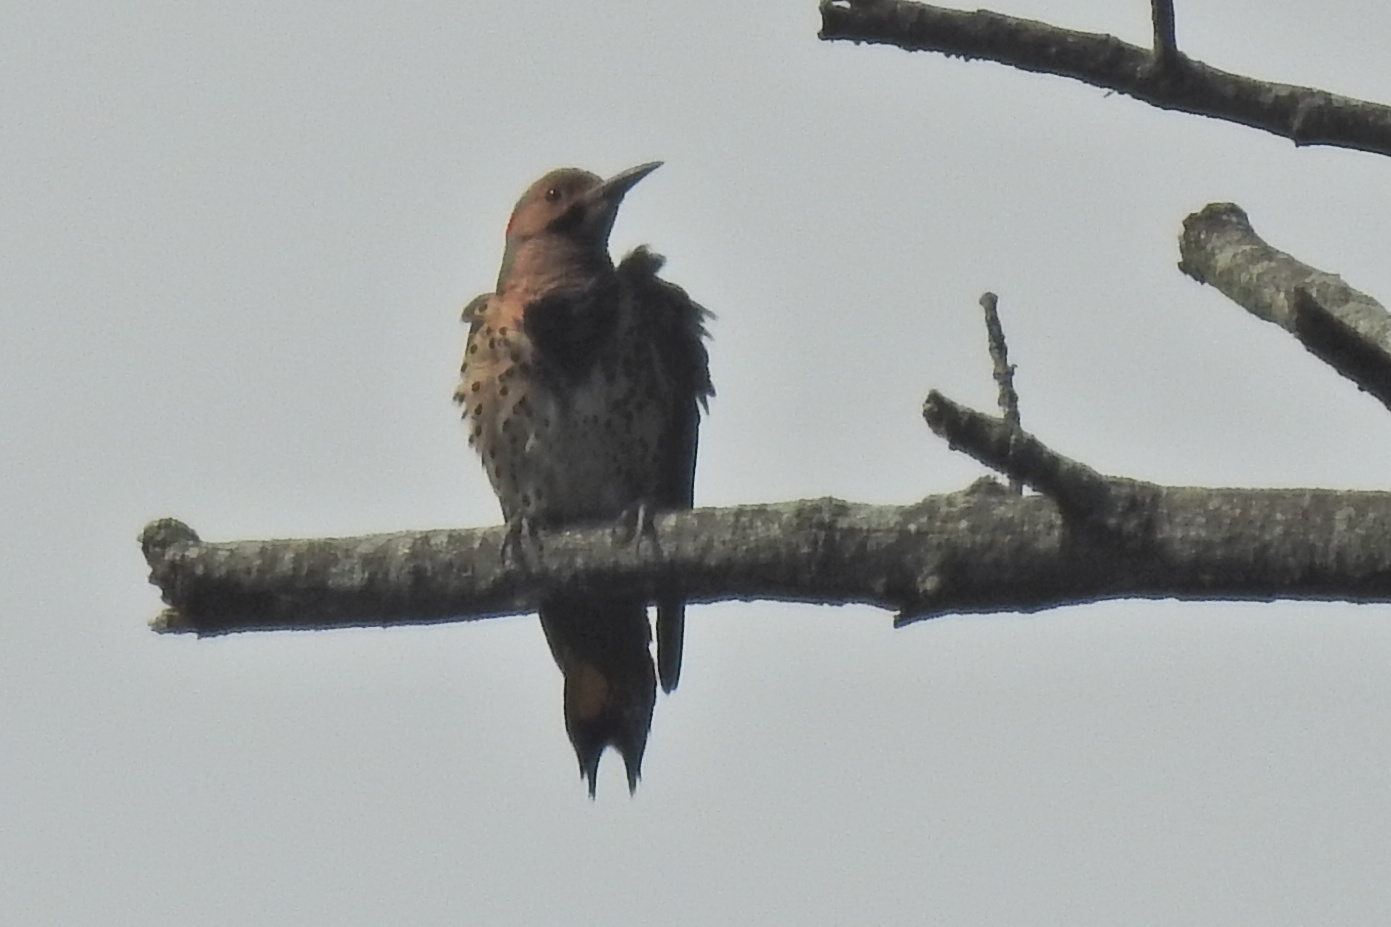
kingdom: Animalia
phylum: Chordata
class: Aves
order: Piciformes
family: Picidae
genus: Colaptes
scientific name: Colaptes auratus
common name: Northern flicker
